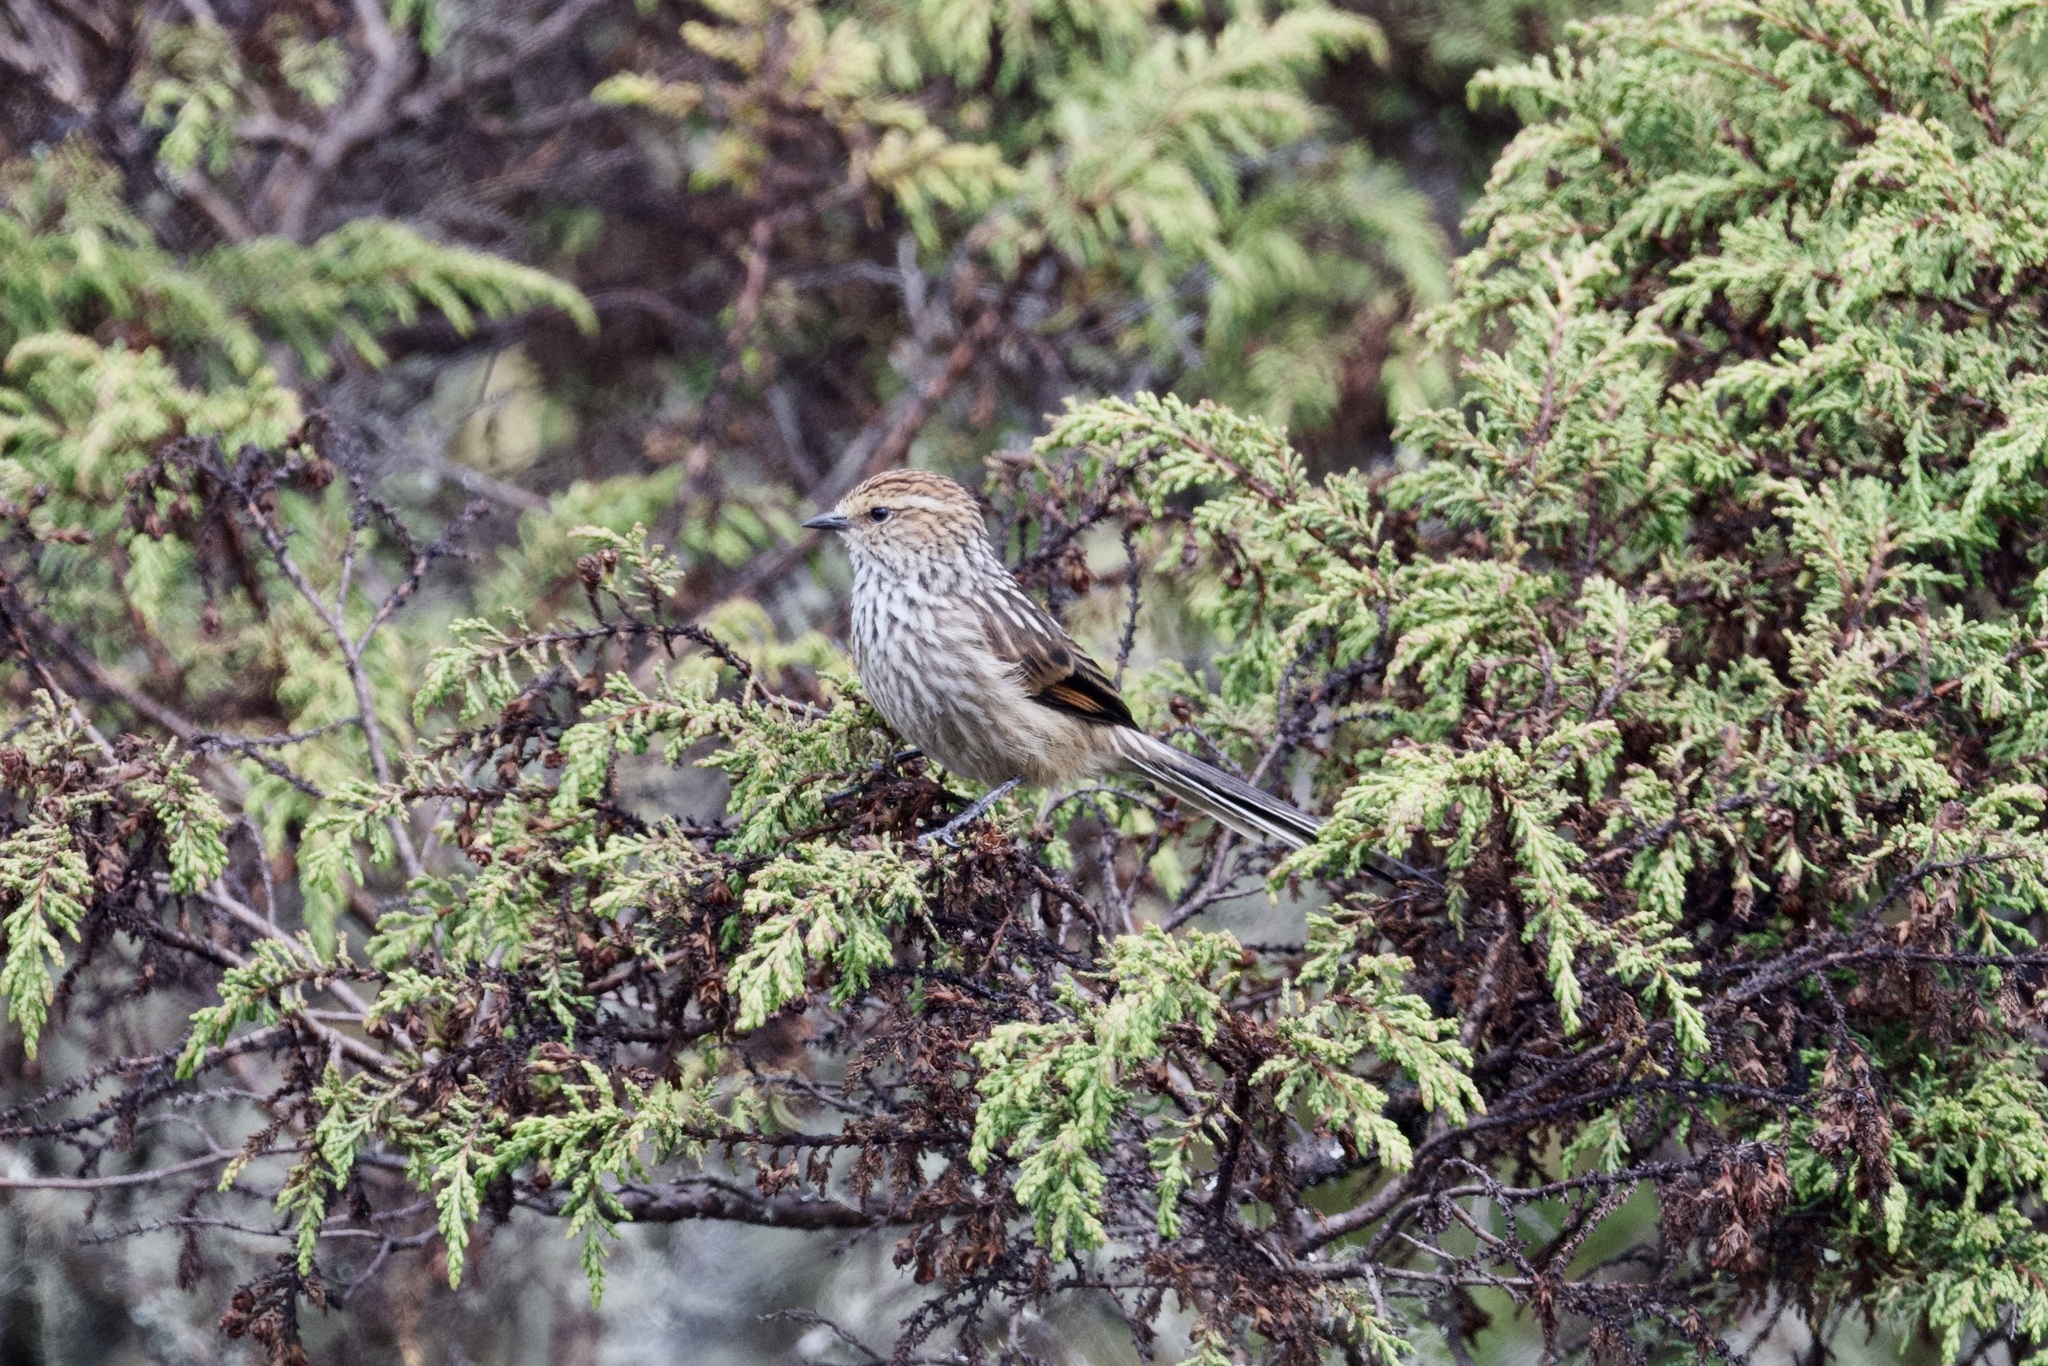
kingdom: Animalia
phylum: Chordata
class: Aves
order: Passeriformes
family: Furnariidae
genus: Leptasthenura
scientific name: Leptasthenura andicola
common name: Andean tit-spinetail
